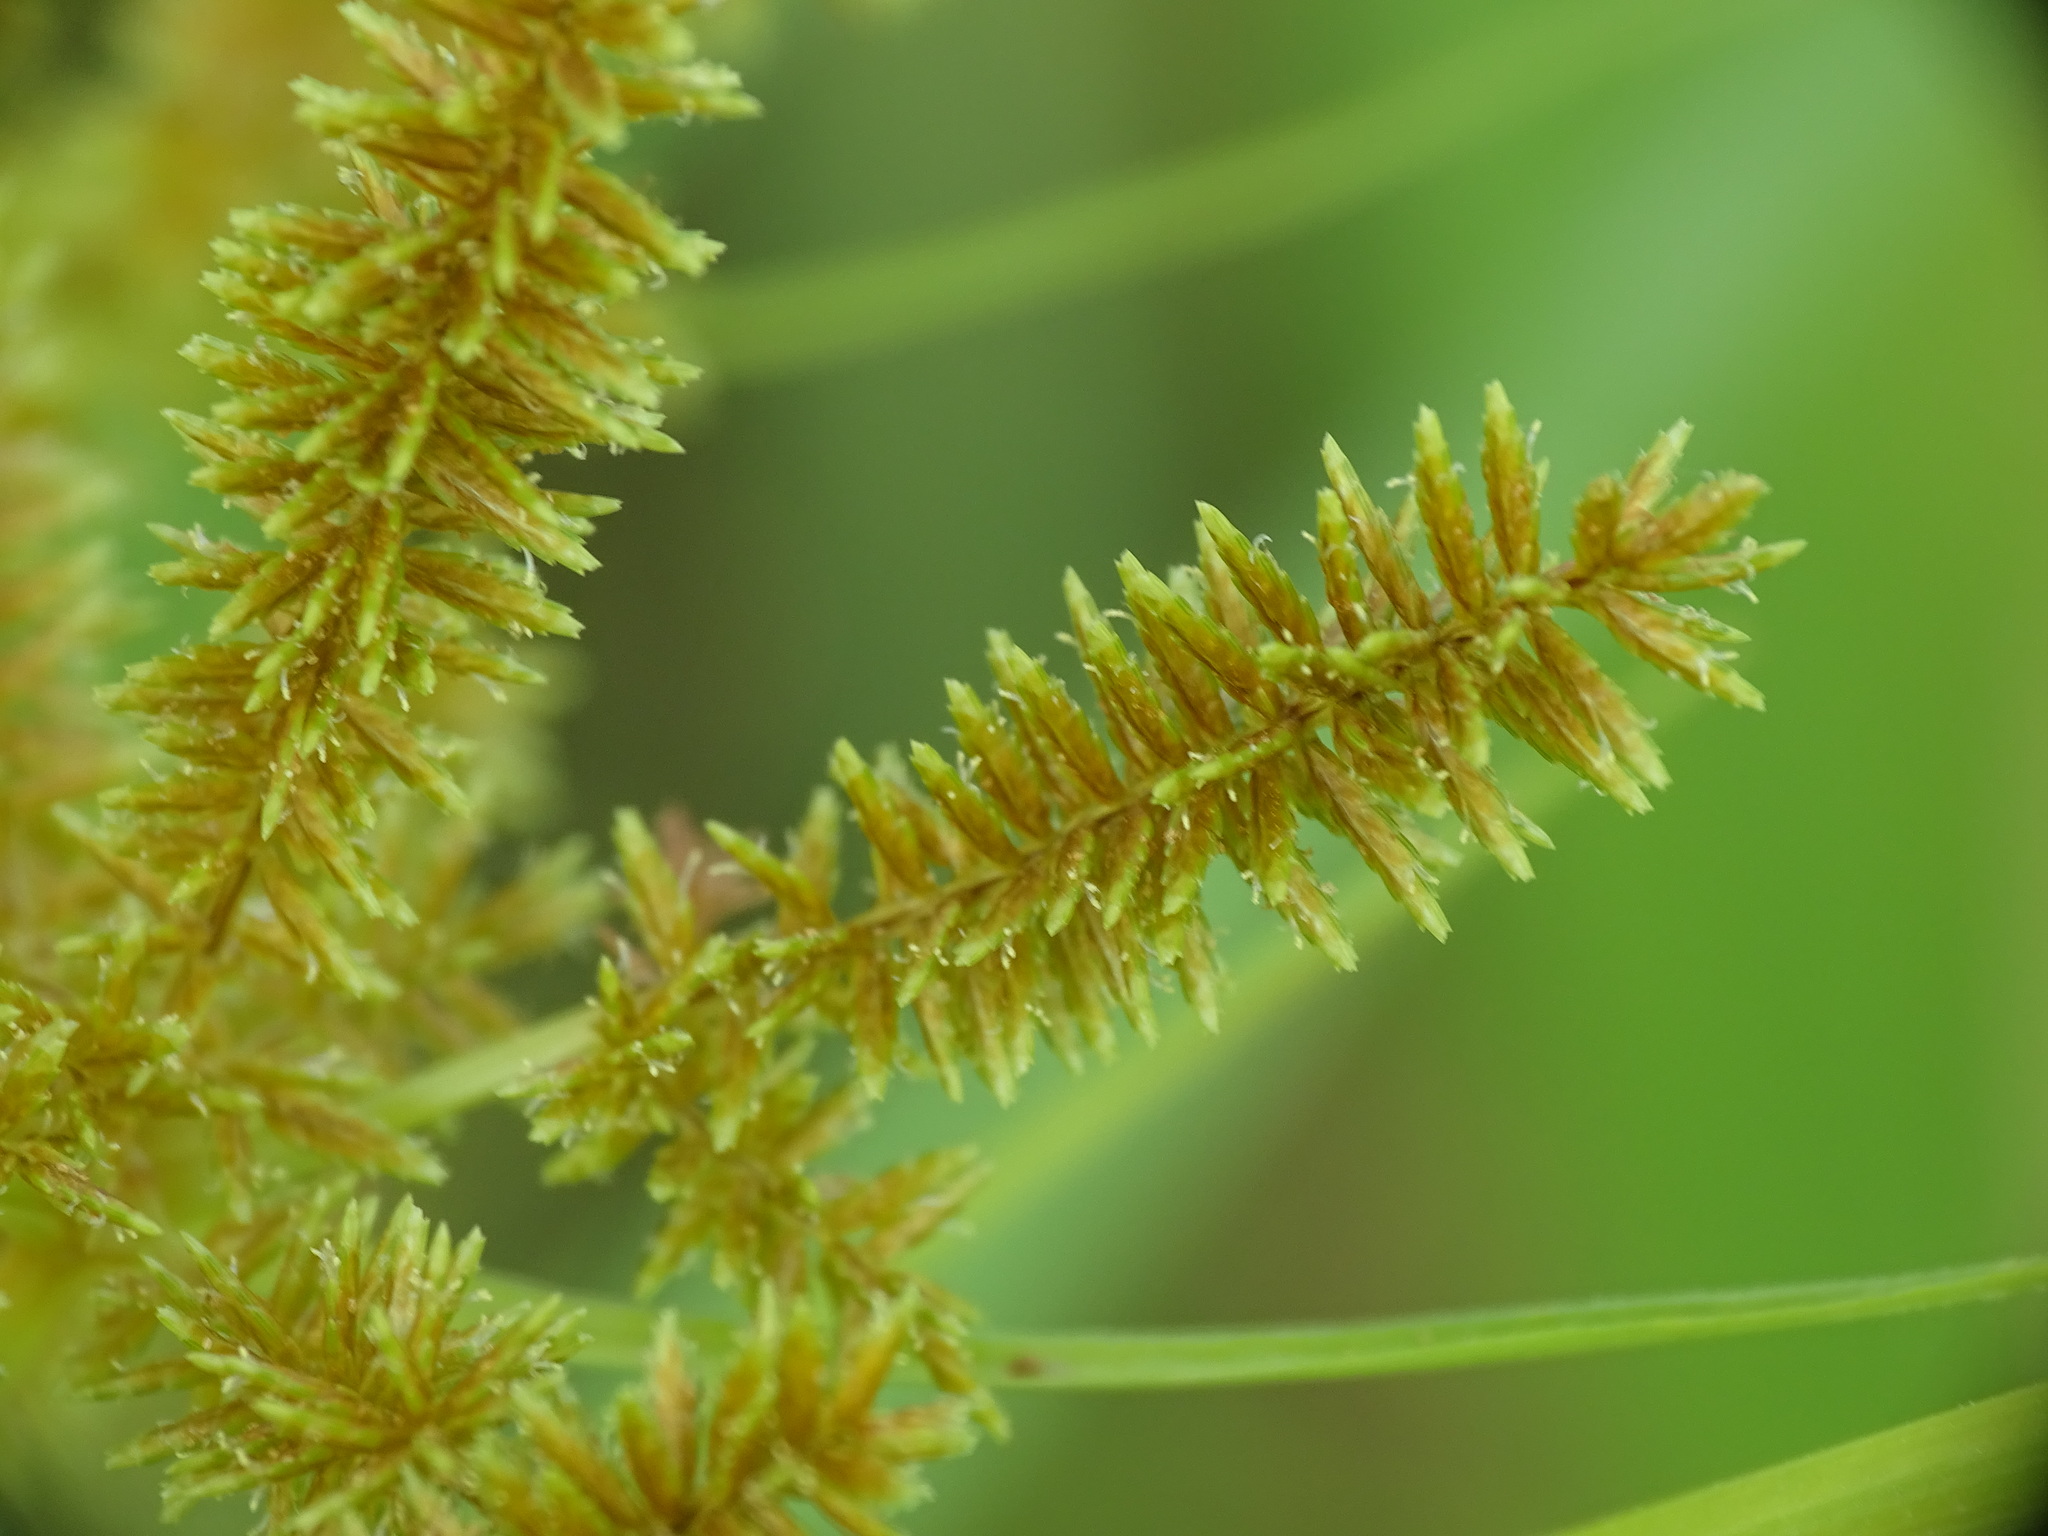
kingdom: Plantae
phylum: Tracheophyta
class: Liliopsida
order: Poales
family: Cyperaceae
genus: Cyperus
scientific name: Cyperus erythrorhizos
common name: Red-root flat sedge
